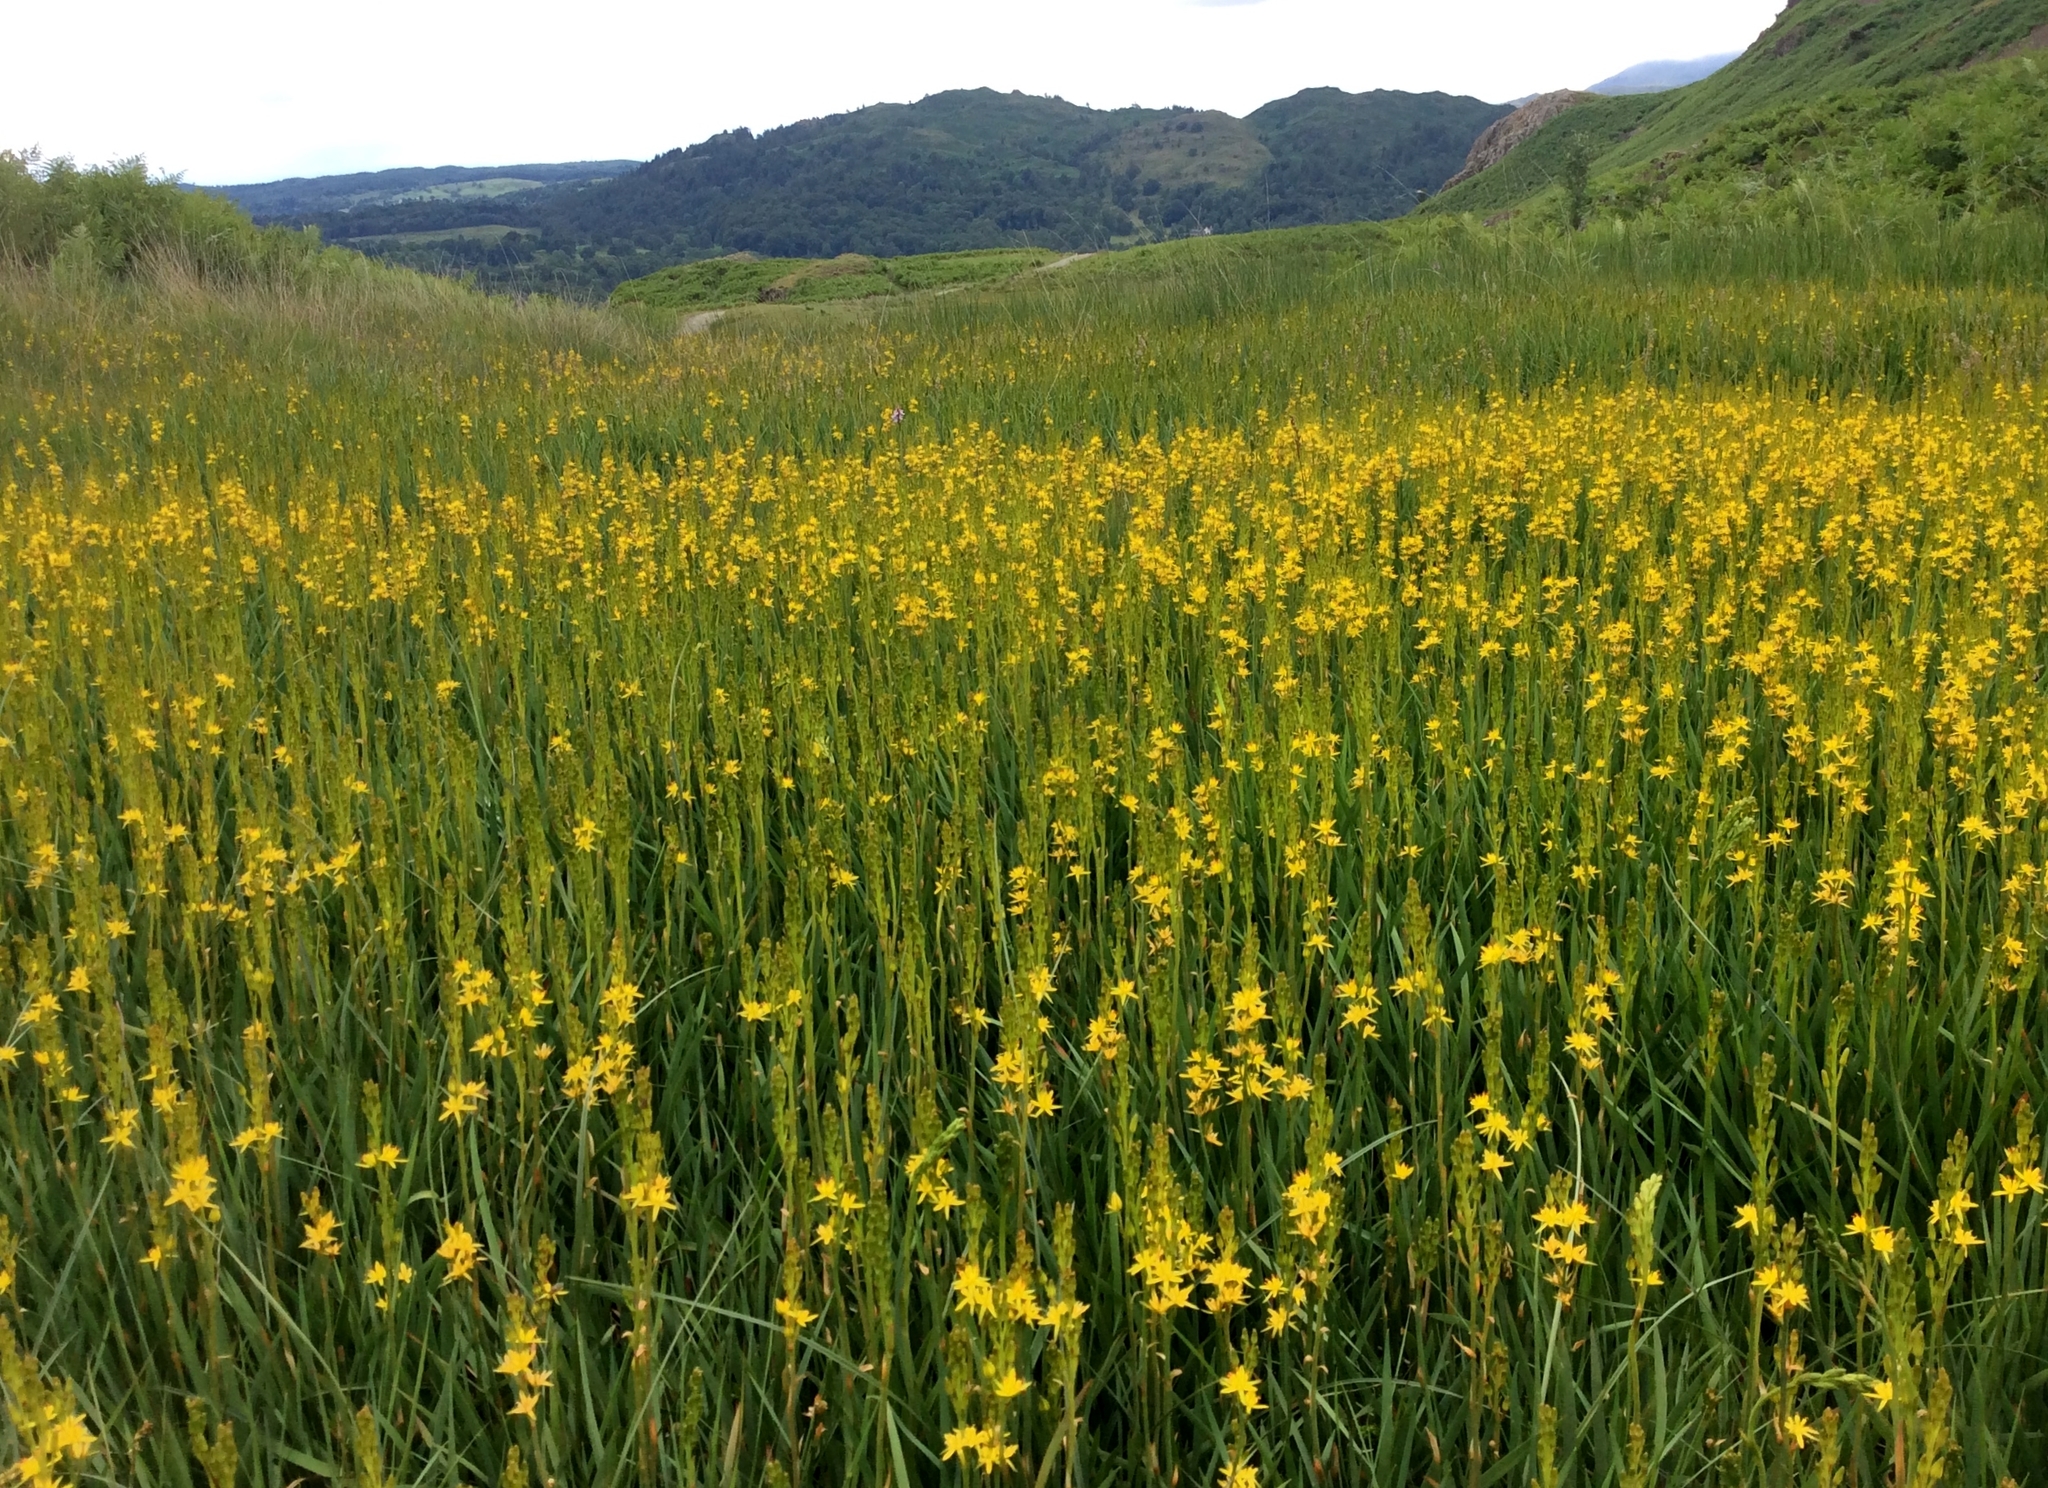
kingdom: Plantae
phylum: Tracheophyta
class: Liliopsida
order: Dioscoreales
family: Nartheciaceae
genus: Narthecium
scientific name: Narthecium ossifragum
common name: Bog asphodel
